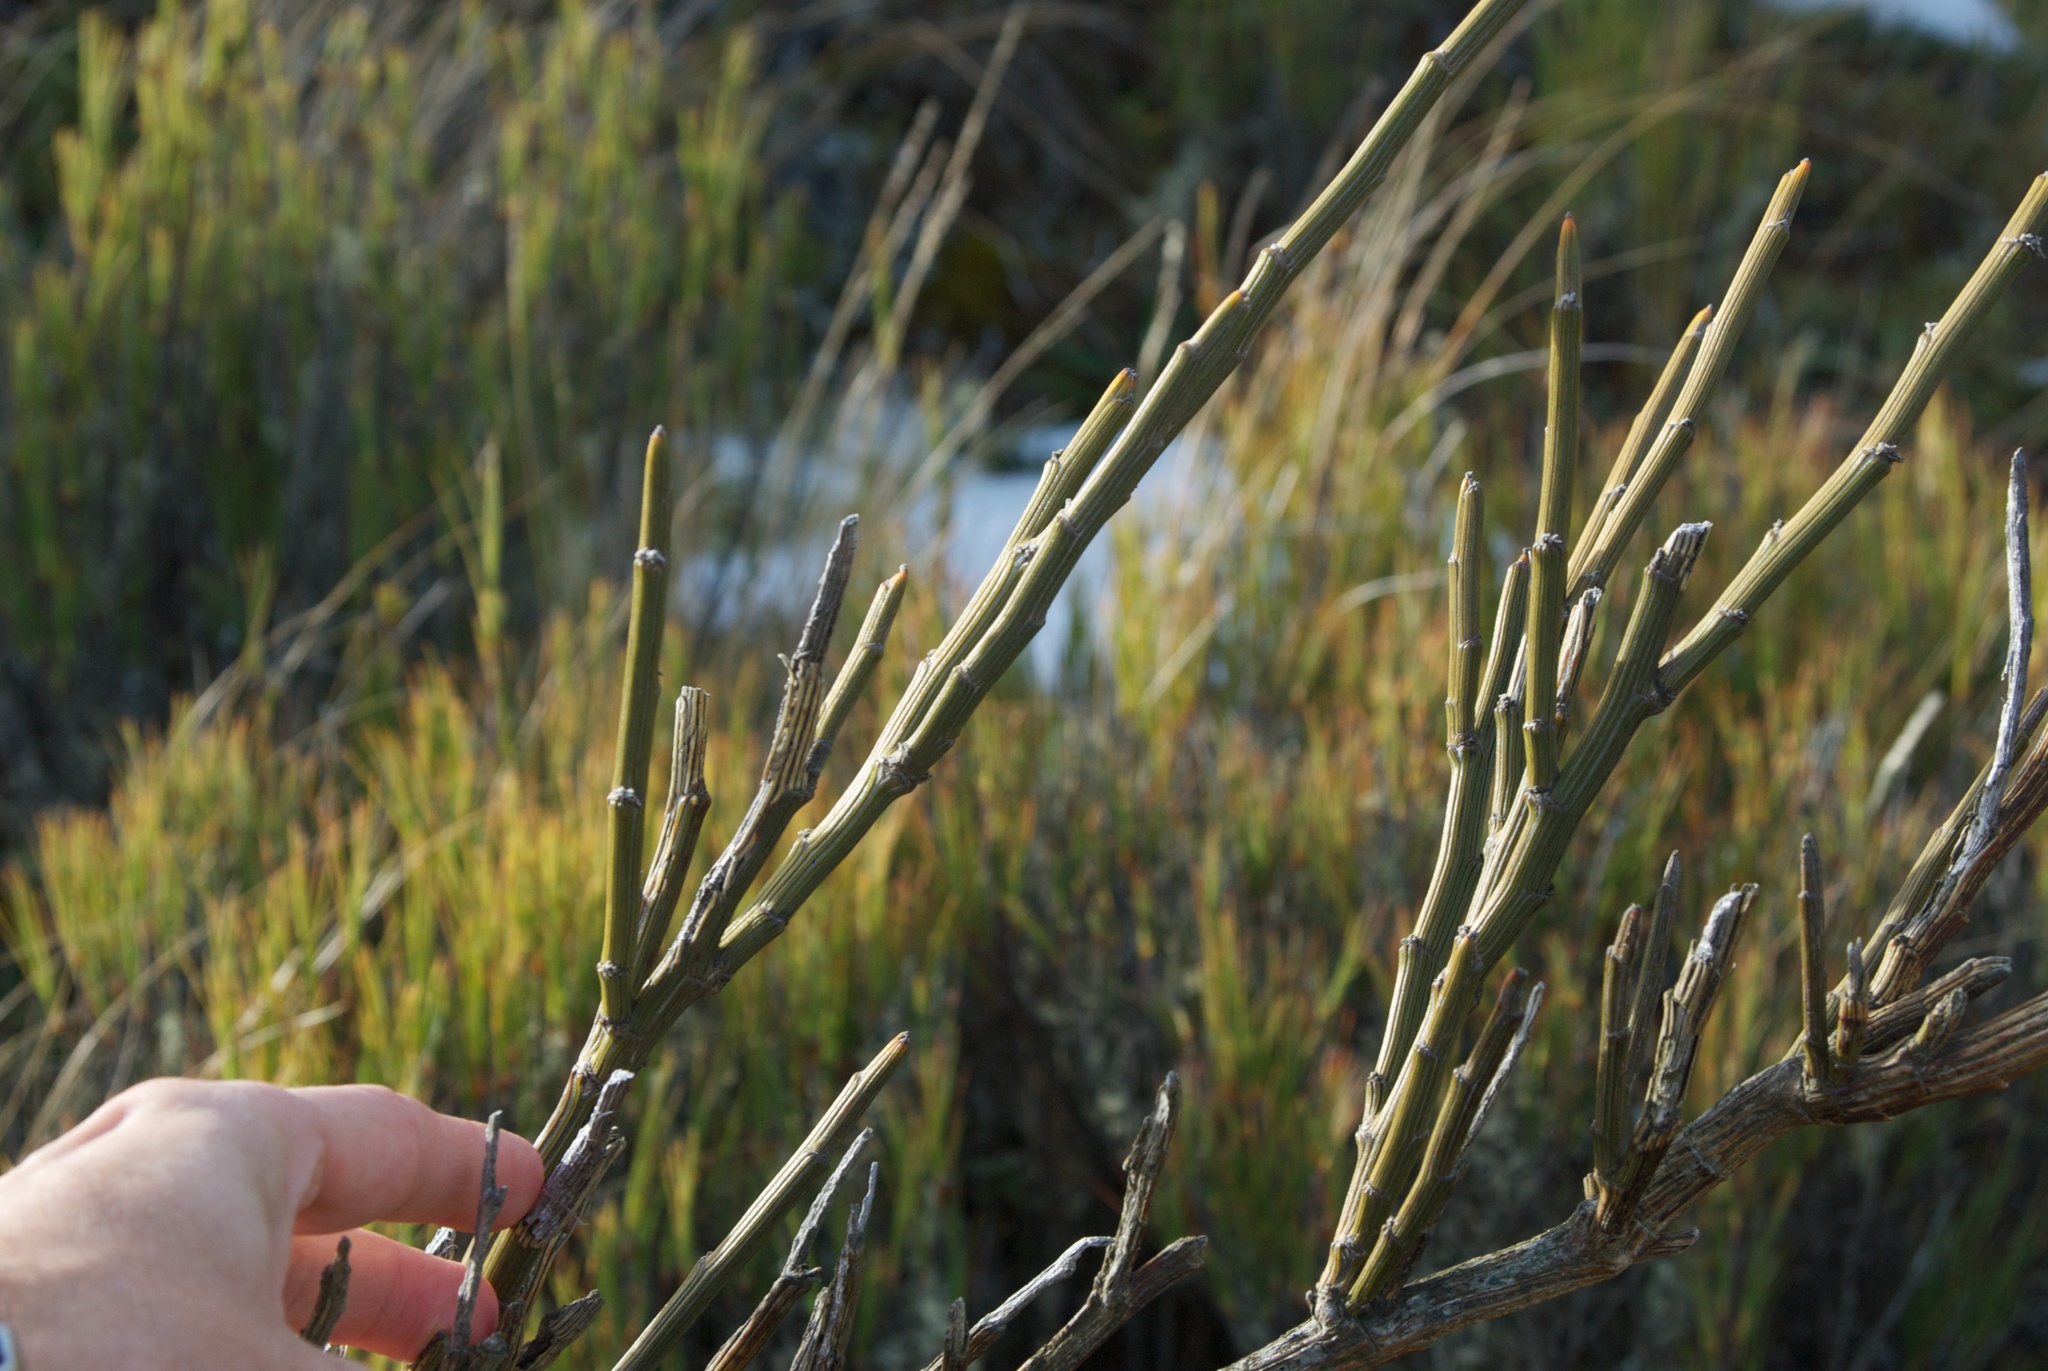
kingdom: Plantae
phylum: Tracheophyta
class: Magnoliopsida
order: Fabales
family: Fabaceae
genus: Carmichaelia
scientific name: Carmichaelia crassicaulis
